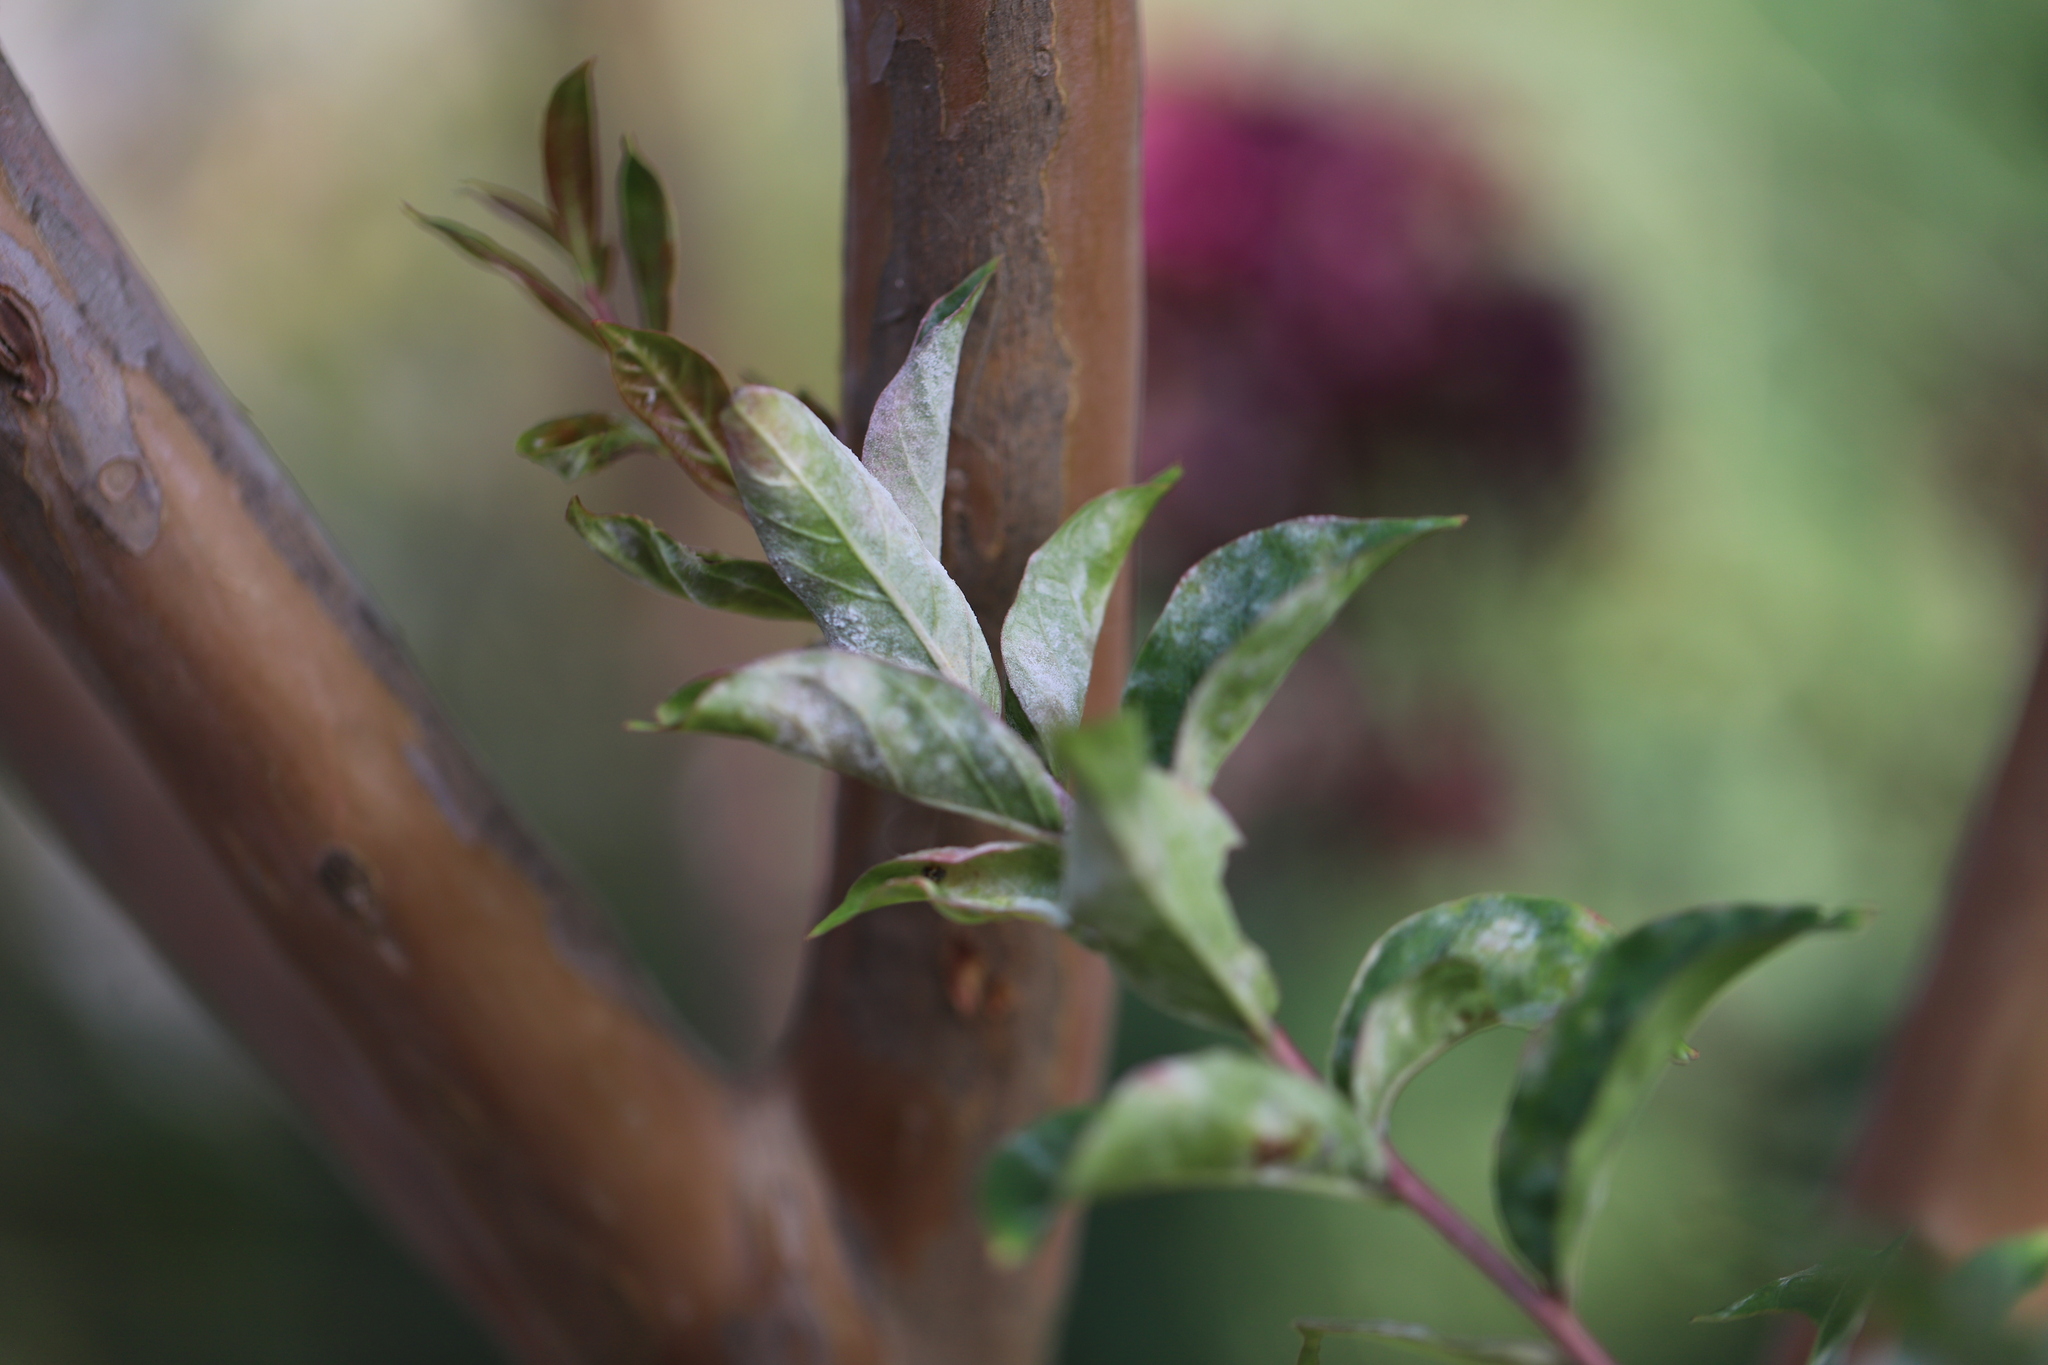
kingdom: Fungi
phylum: Ascomycota
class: Leotiomycetes
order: Helotiales
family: Erysiphaceae
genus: Erysiphe
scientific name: Erysiphe australiana
